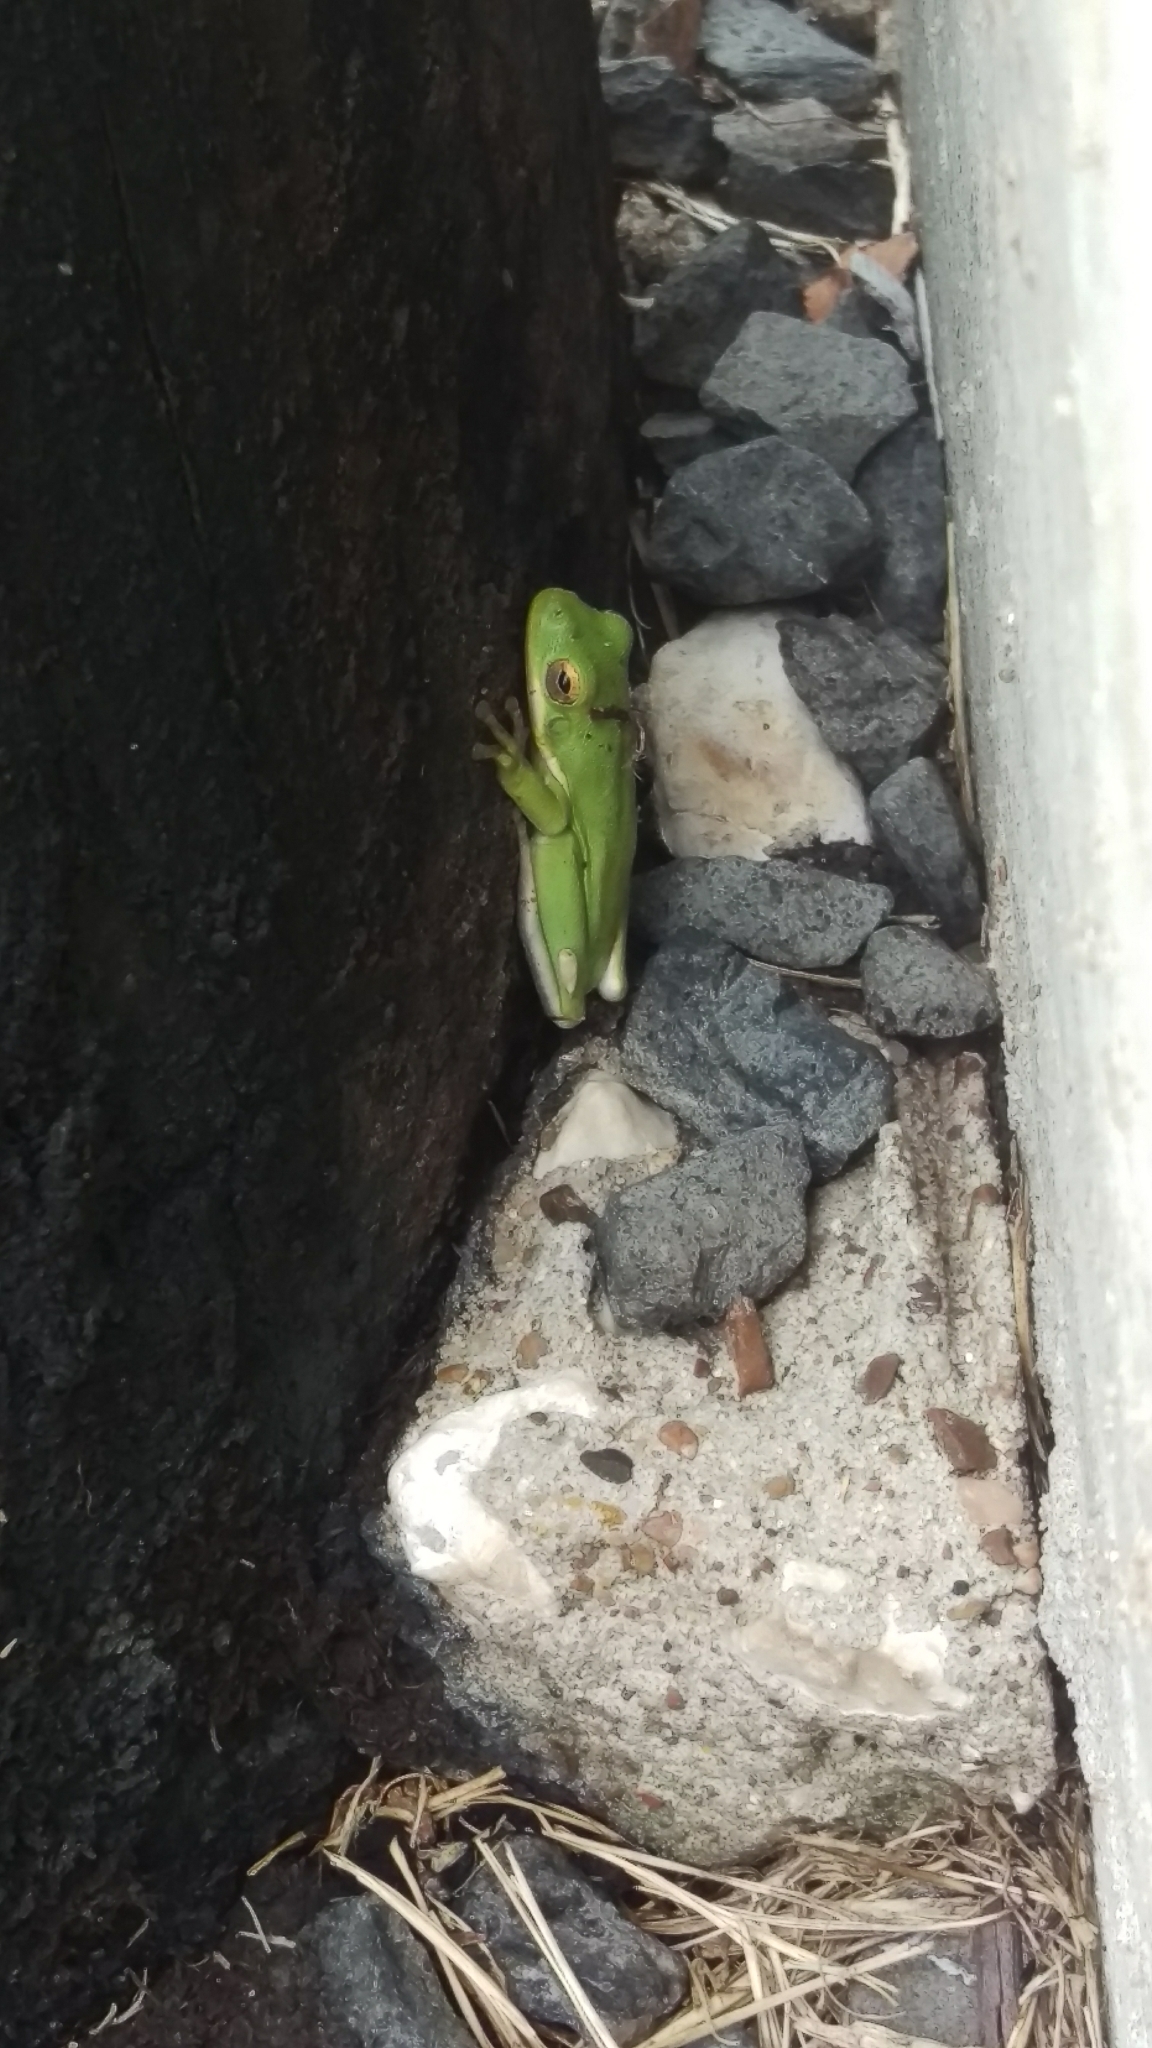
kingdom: Animalia
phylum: Chordata
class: Amphibia
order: Anura
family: Hylidae
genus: Dryophytes
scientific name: Dryophytes squirellus
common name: Squirrel treefrog
